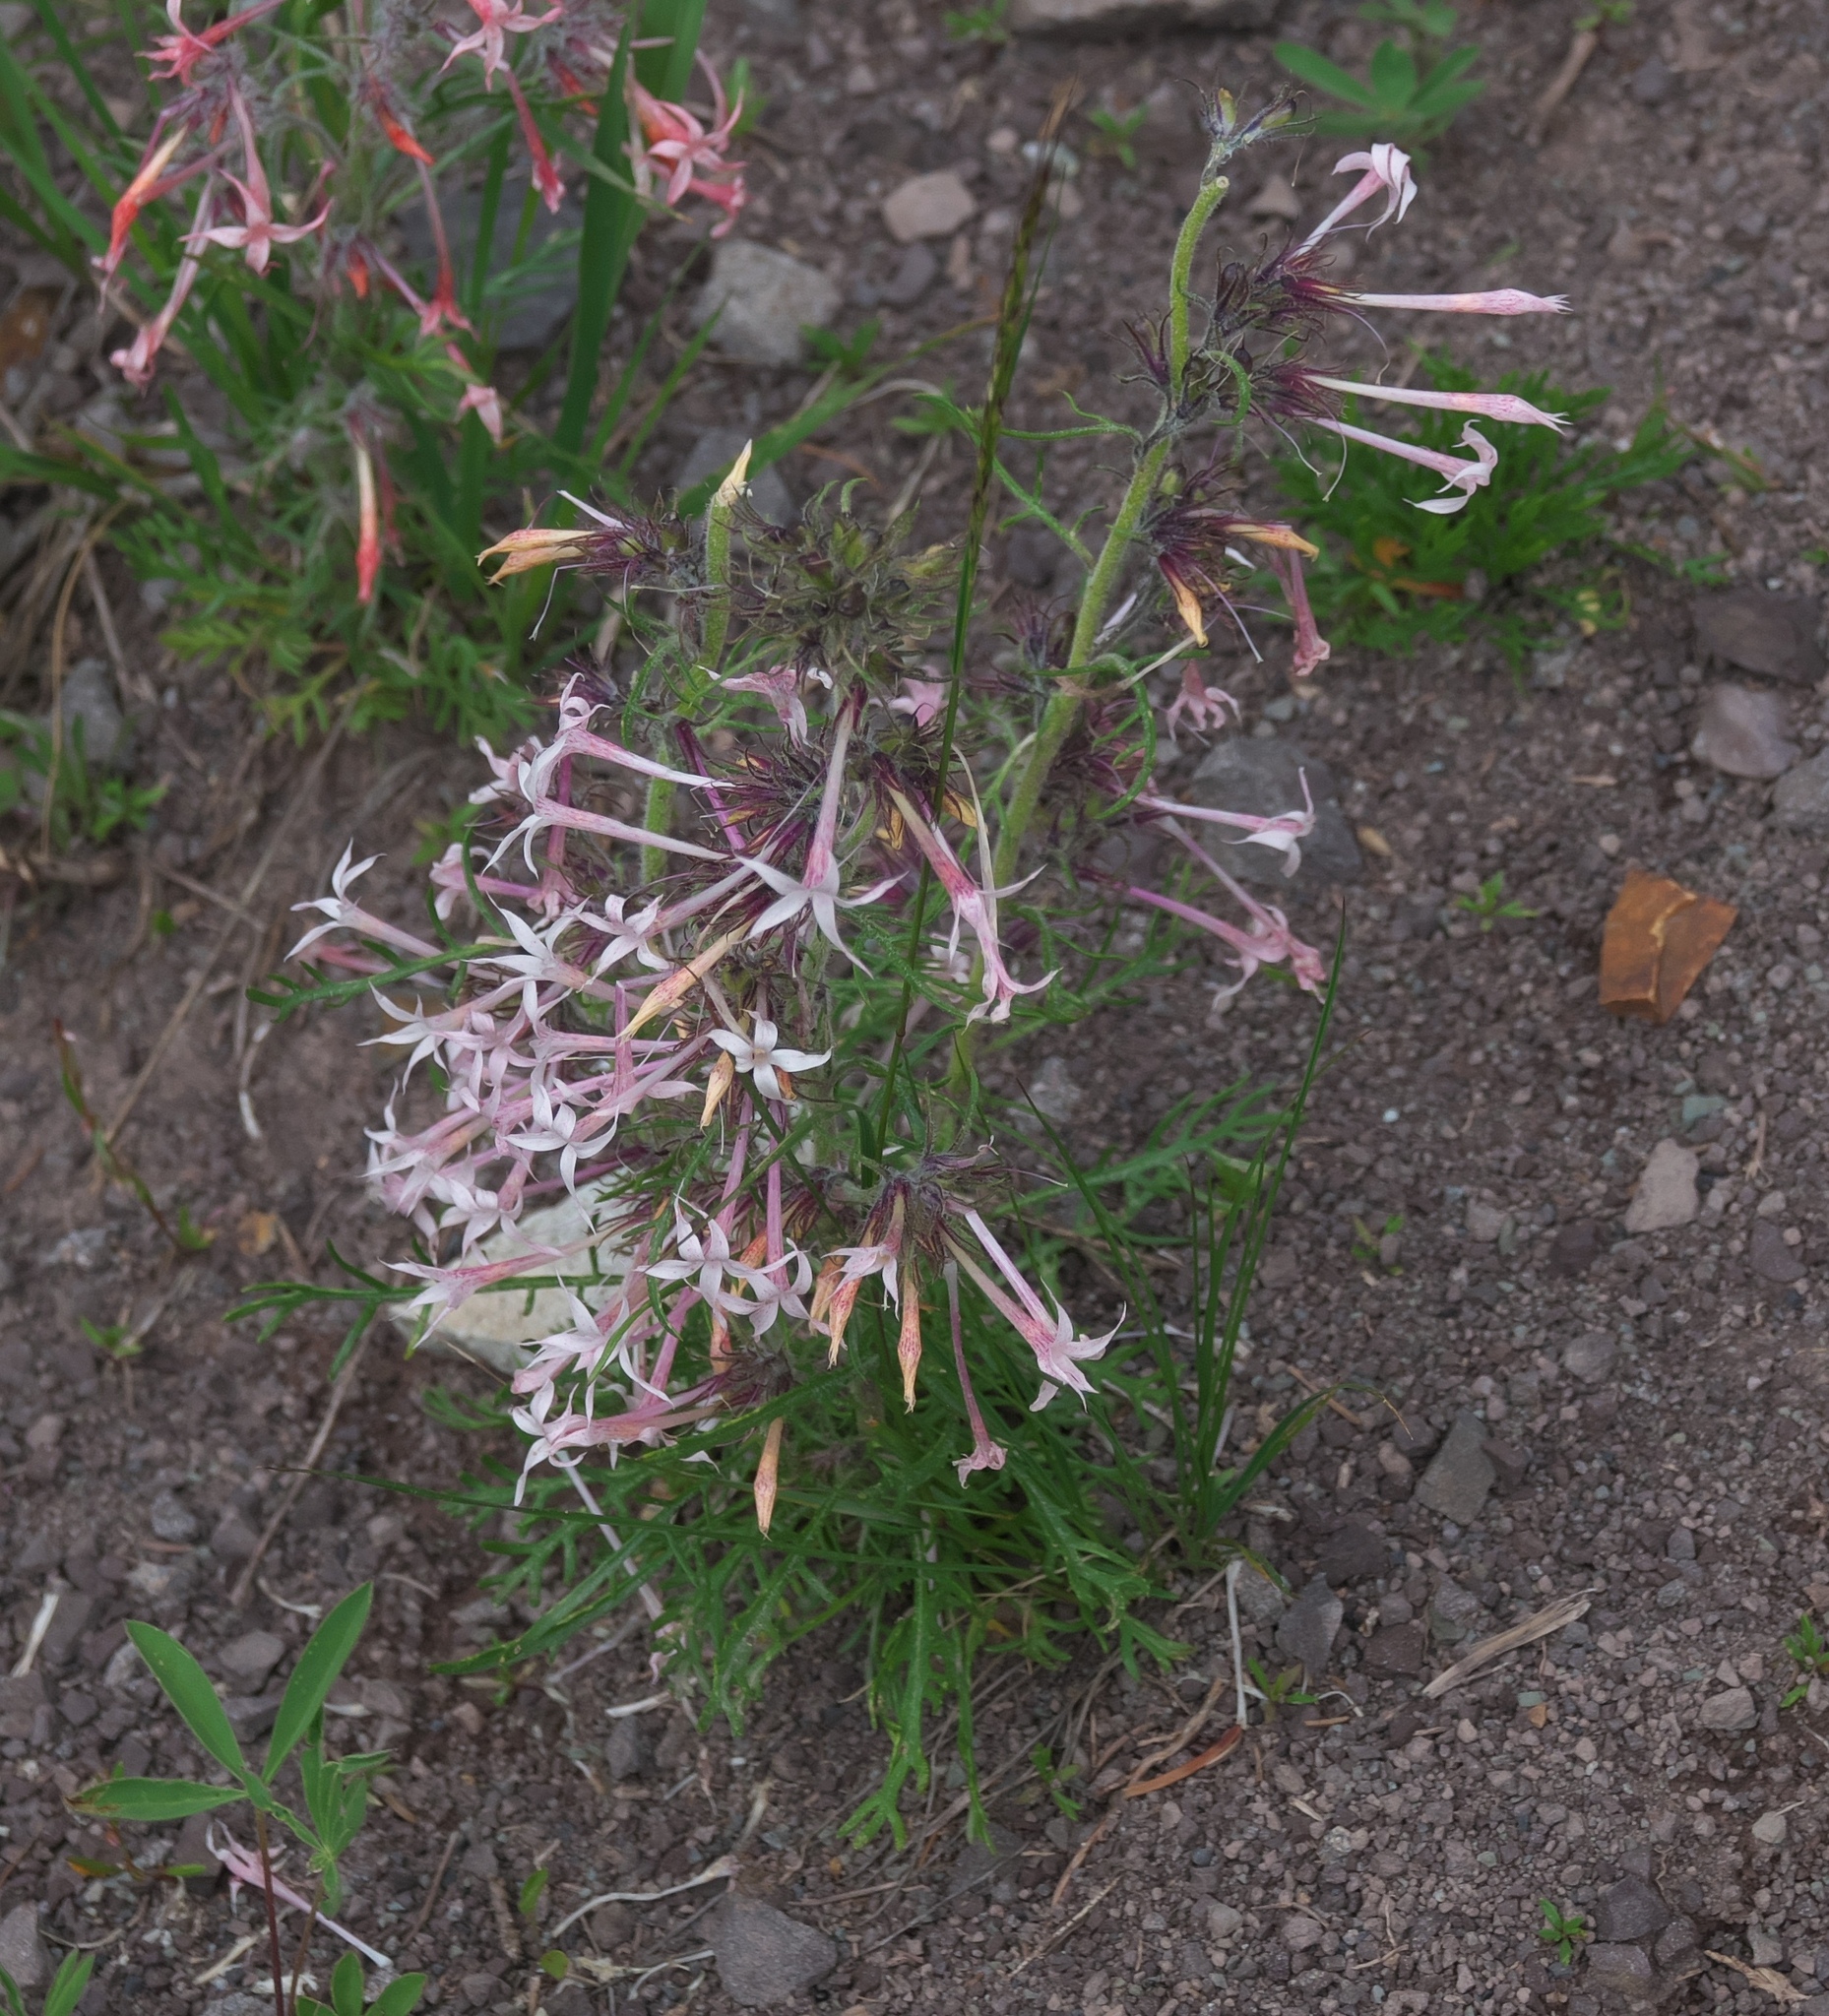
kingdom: Plantae
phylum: Tracheophyta
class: Magnoliopsida
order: Ericales
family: Polemoniaceae
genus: Ipomopsis
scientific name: Ipomopsis tenuituba
